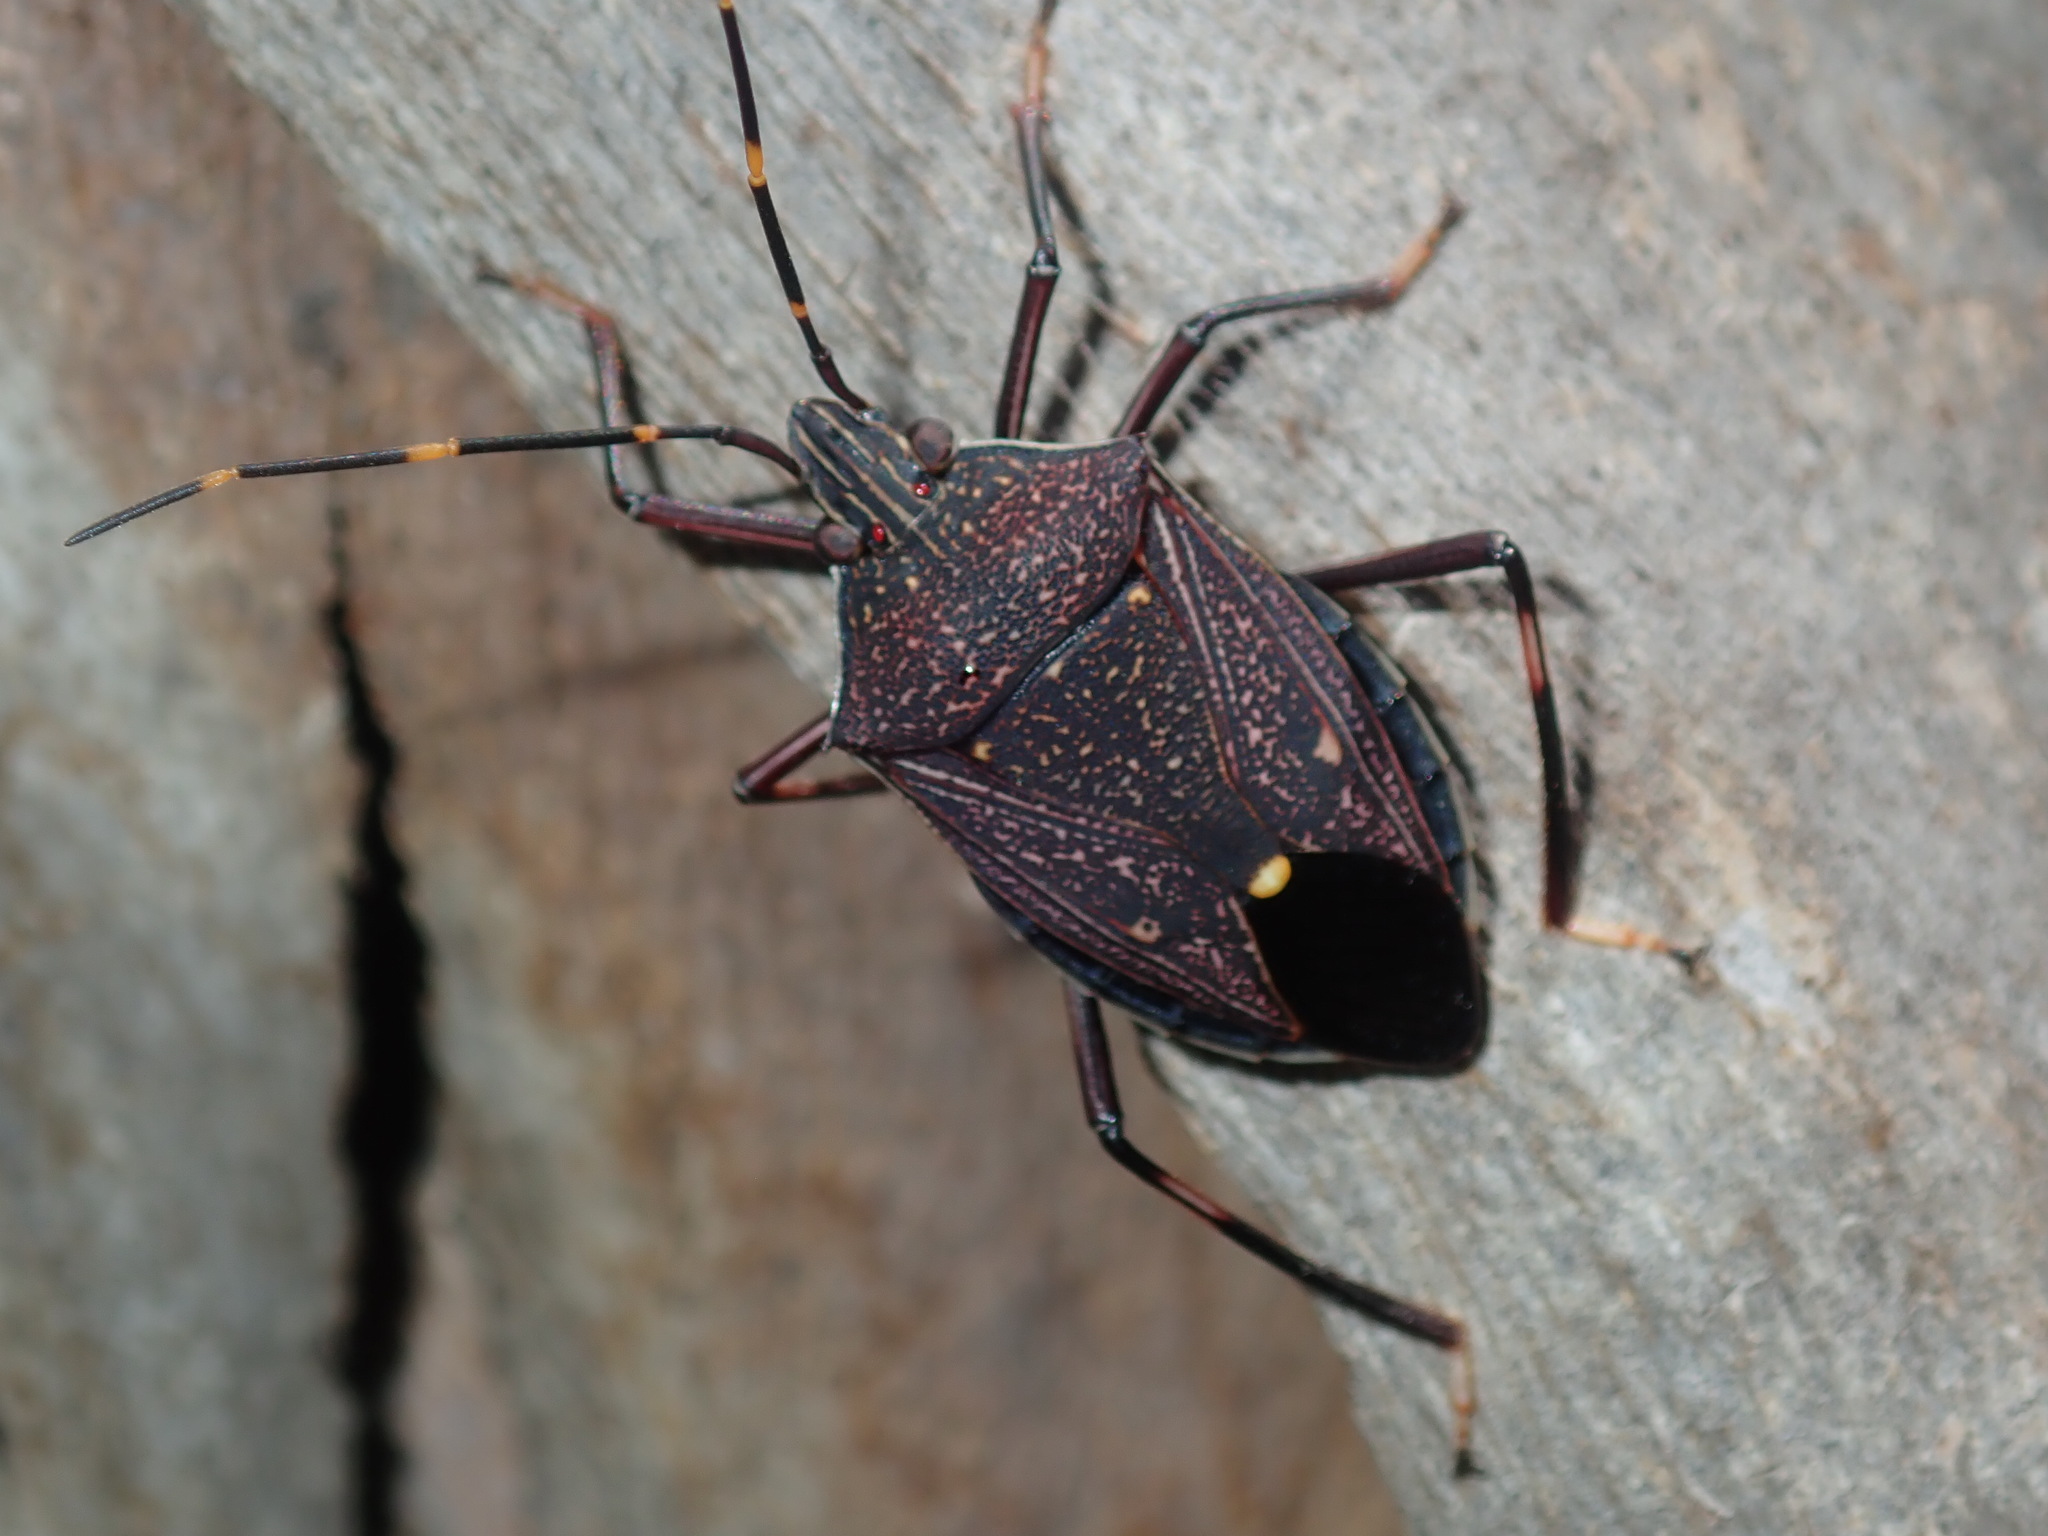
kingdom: Animalia
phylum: Arthropoda
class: Insecta
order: Hemiptera
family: Pentatomidae
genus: Poecilometis
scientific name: Poecilometis
